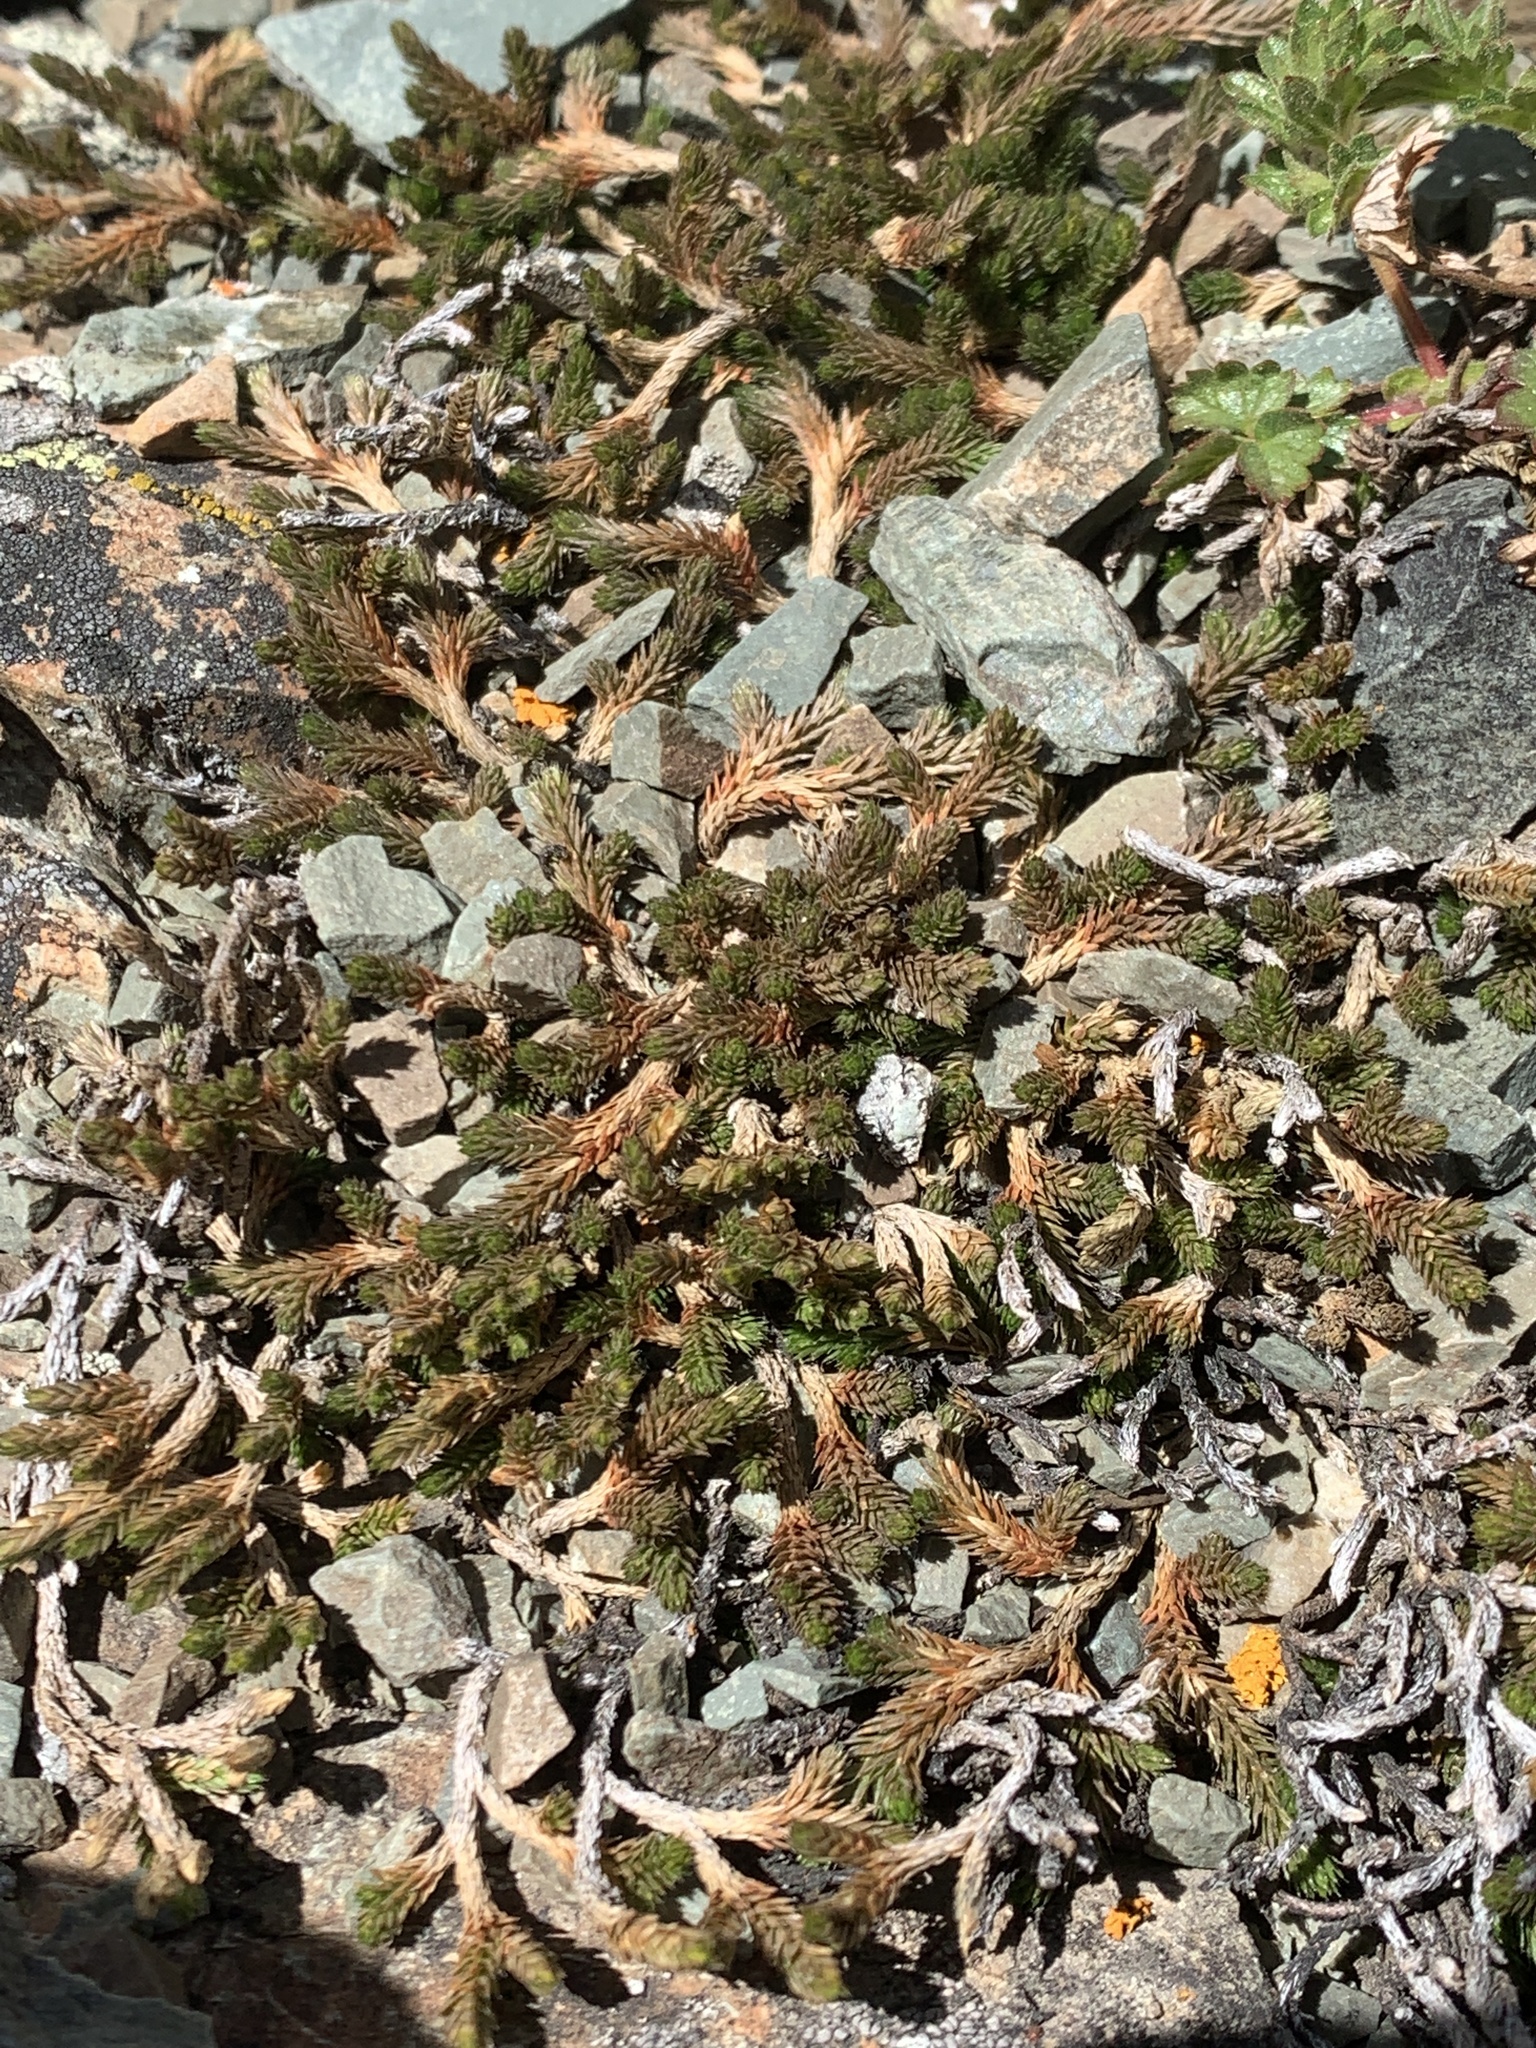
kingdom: Plantae
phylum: Tracheophyta
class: Lycopodiopsida
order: Selaginellales
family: Selaginellaceae
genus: Selaginella
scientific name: Selaginella wallacei
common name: Wallace's selaginella
